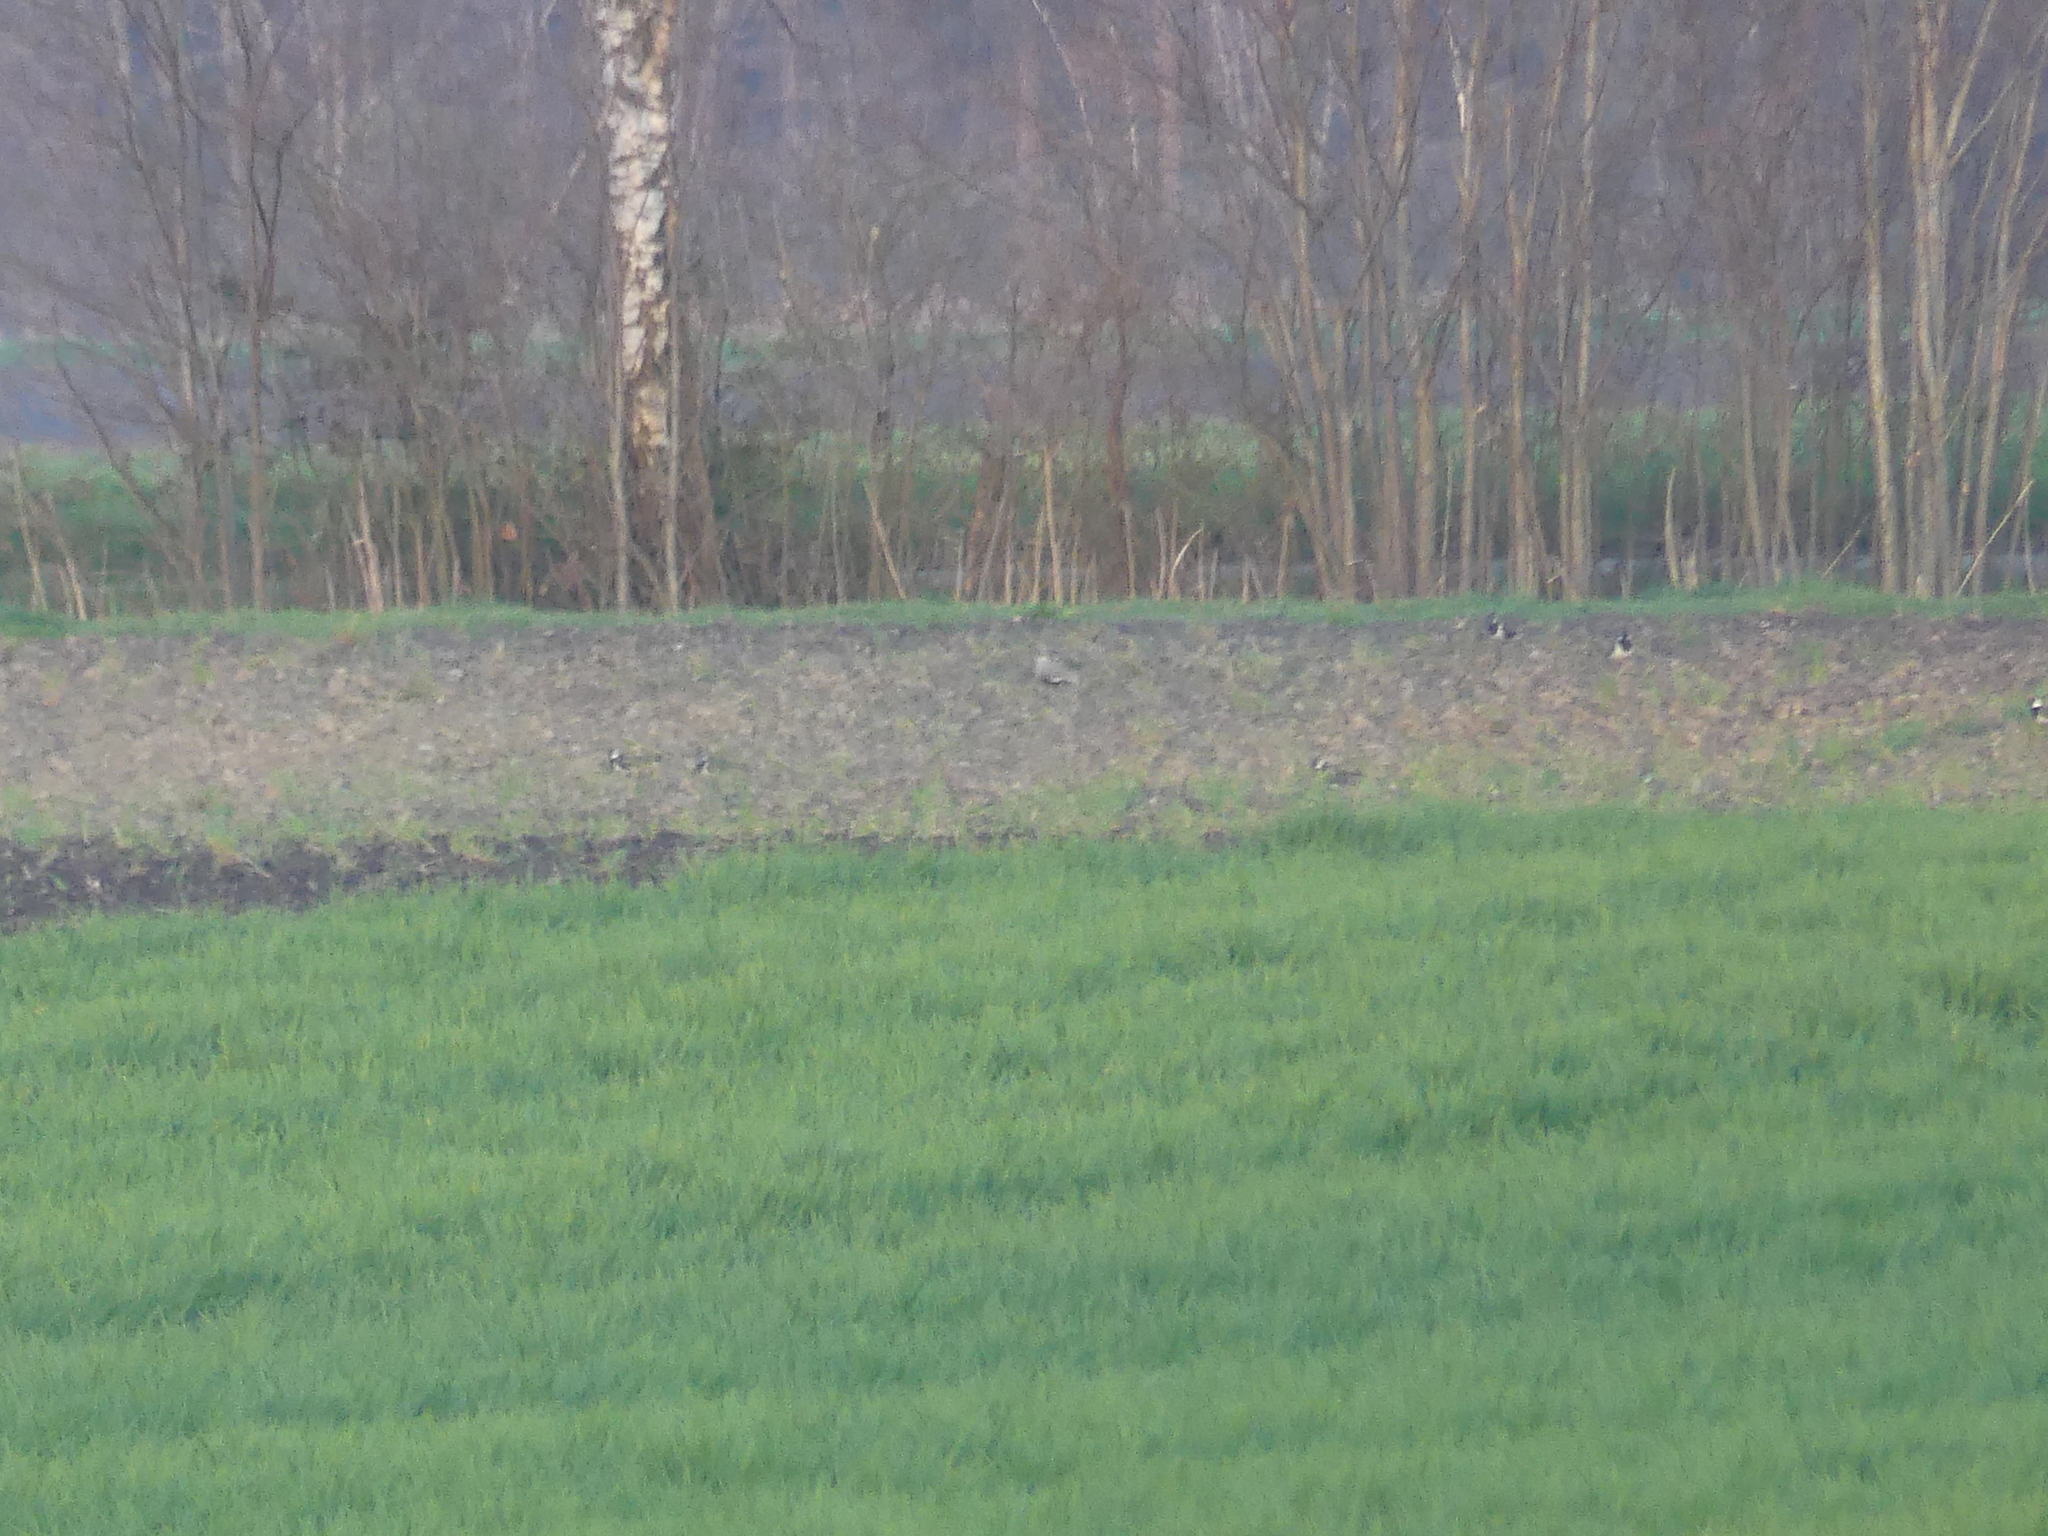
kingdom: Animalia
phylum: Chordata
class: Aves
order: Charadriiformes
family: Charadriidae
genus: Vanellus
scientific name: Vanellus gregarius
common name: Sociable lapwing
